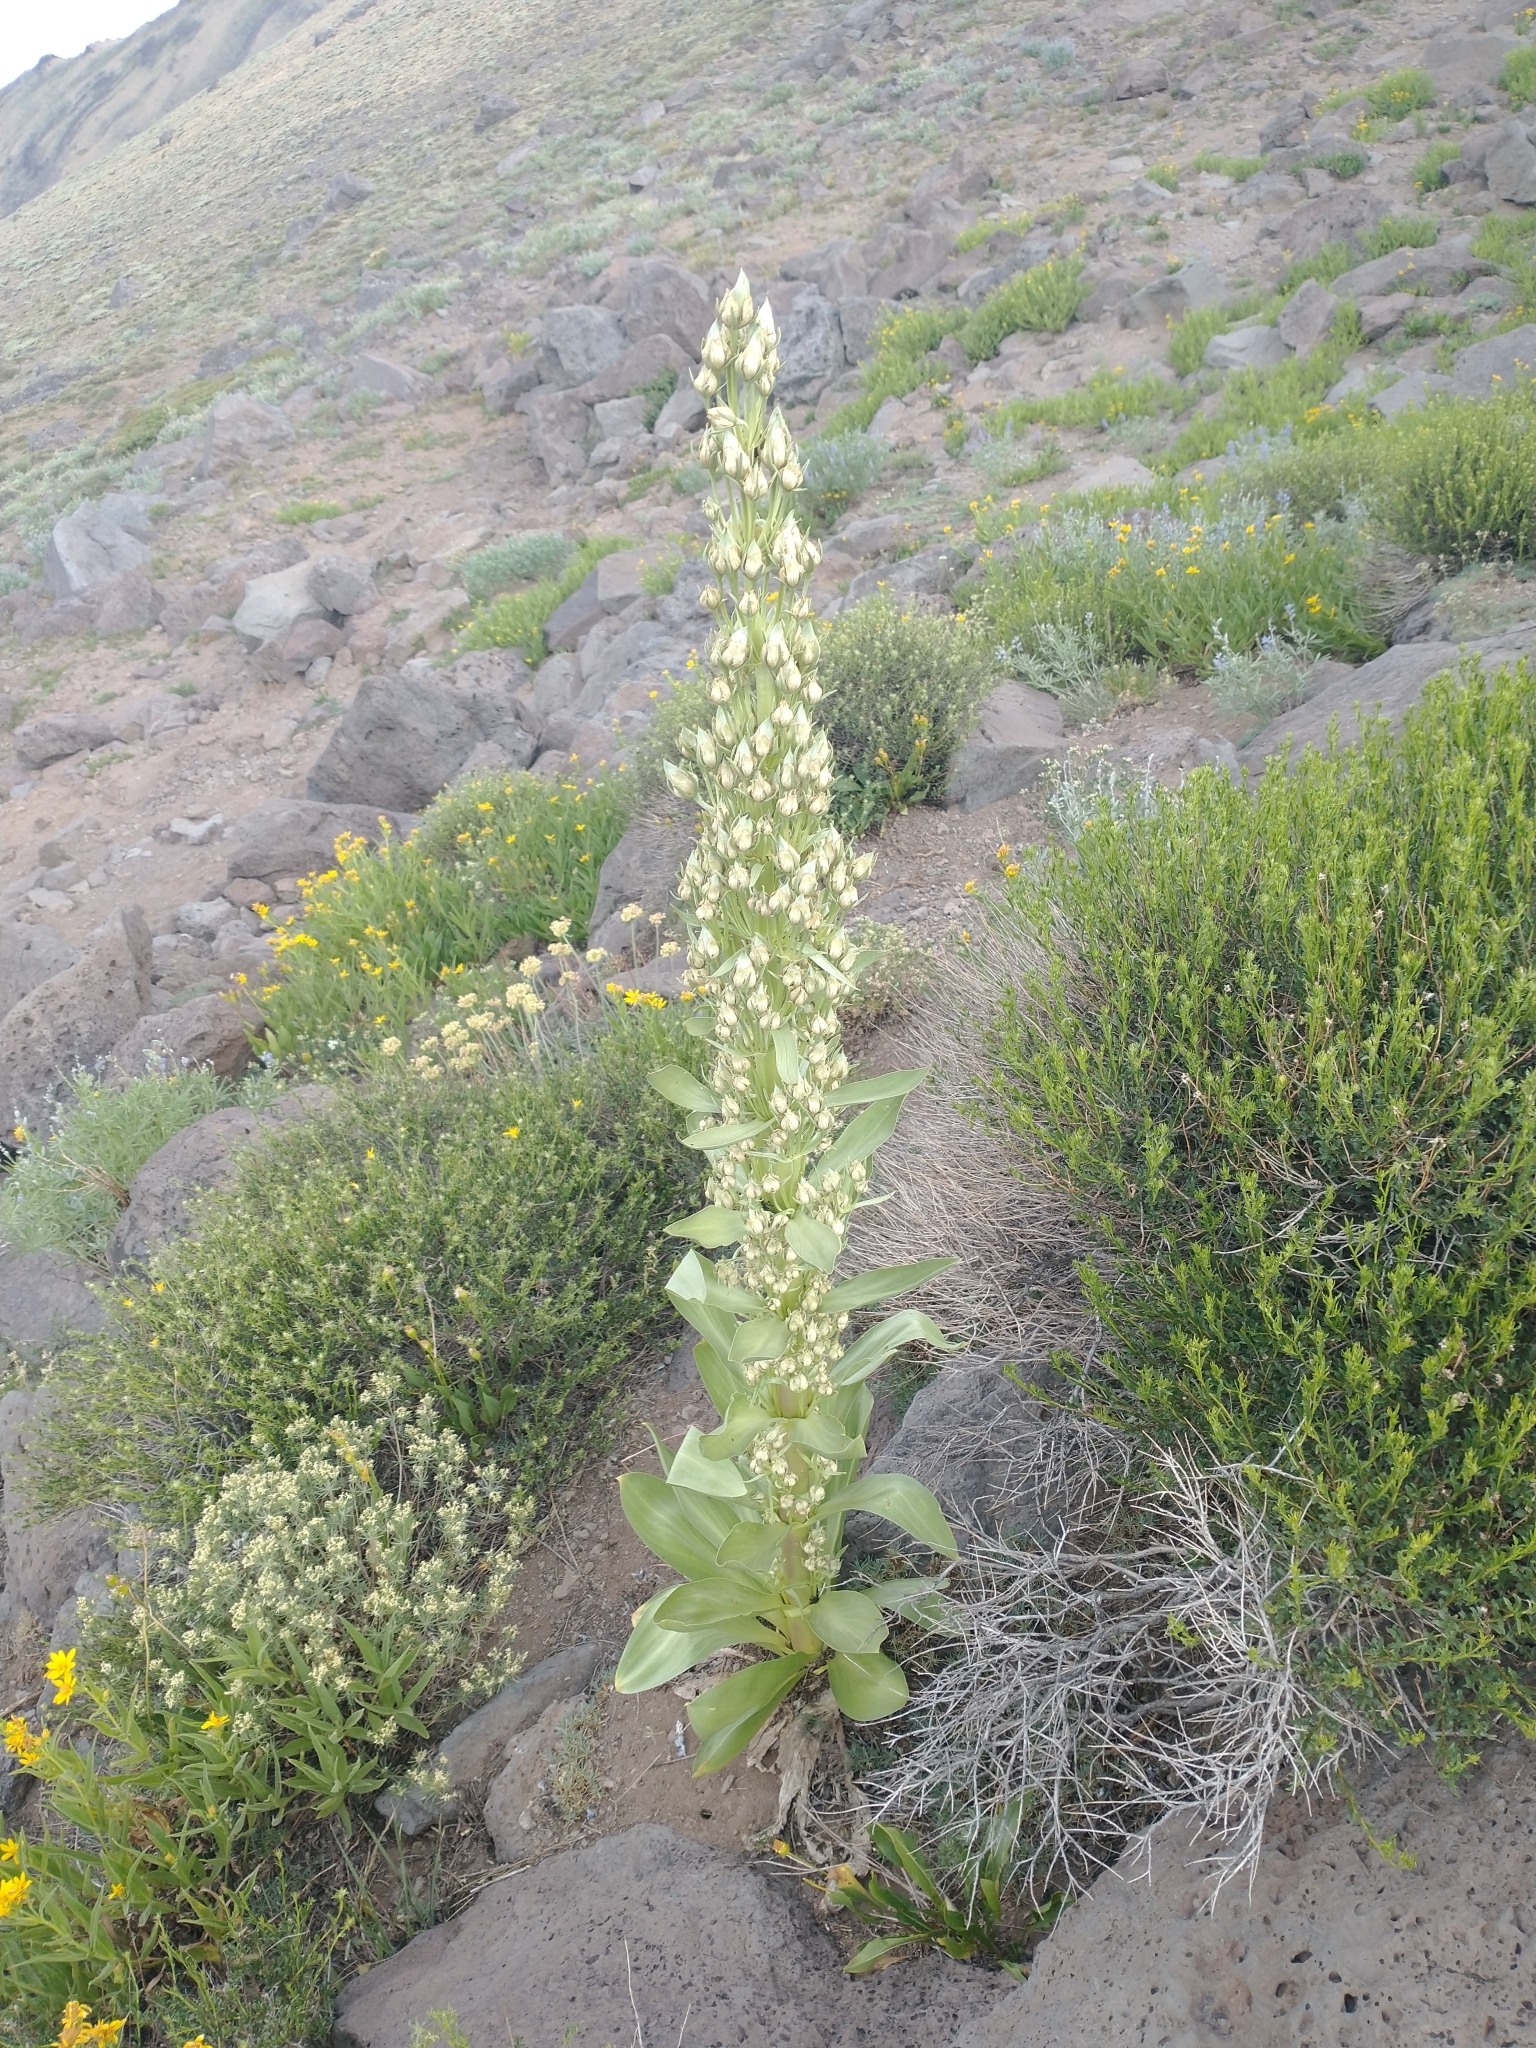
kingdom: Plantae
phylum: Tracheophyta
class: Magnoliopsida
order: Gentianales
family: Gentianaceae
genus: Frasera
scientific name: Frasera speciosa
